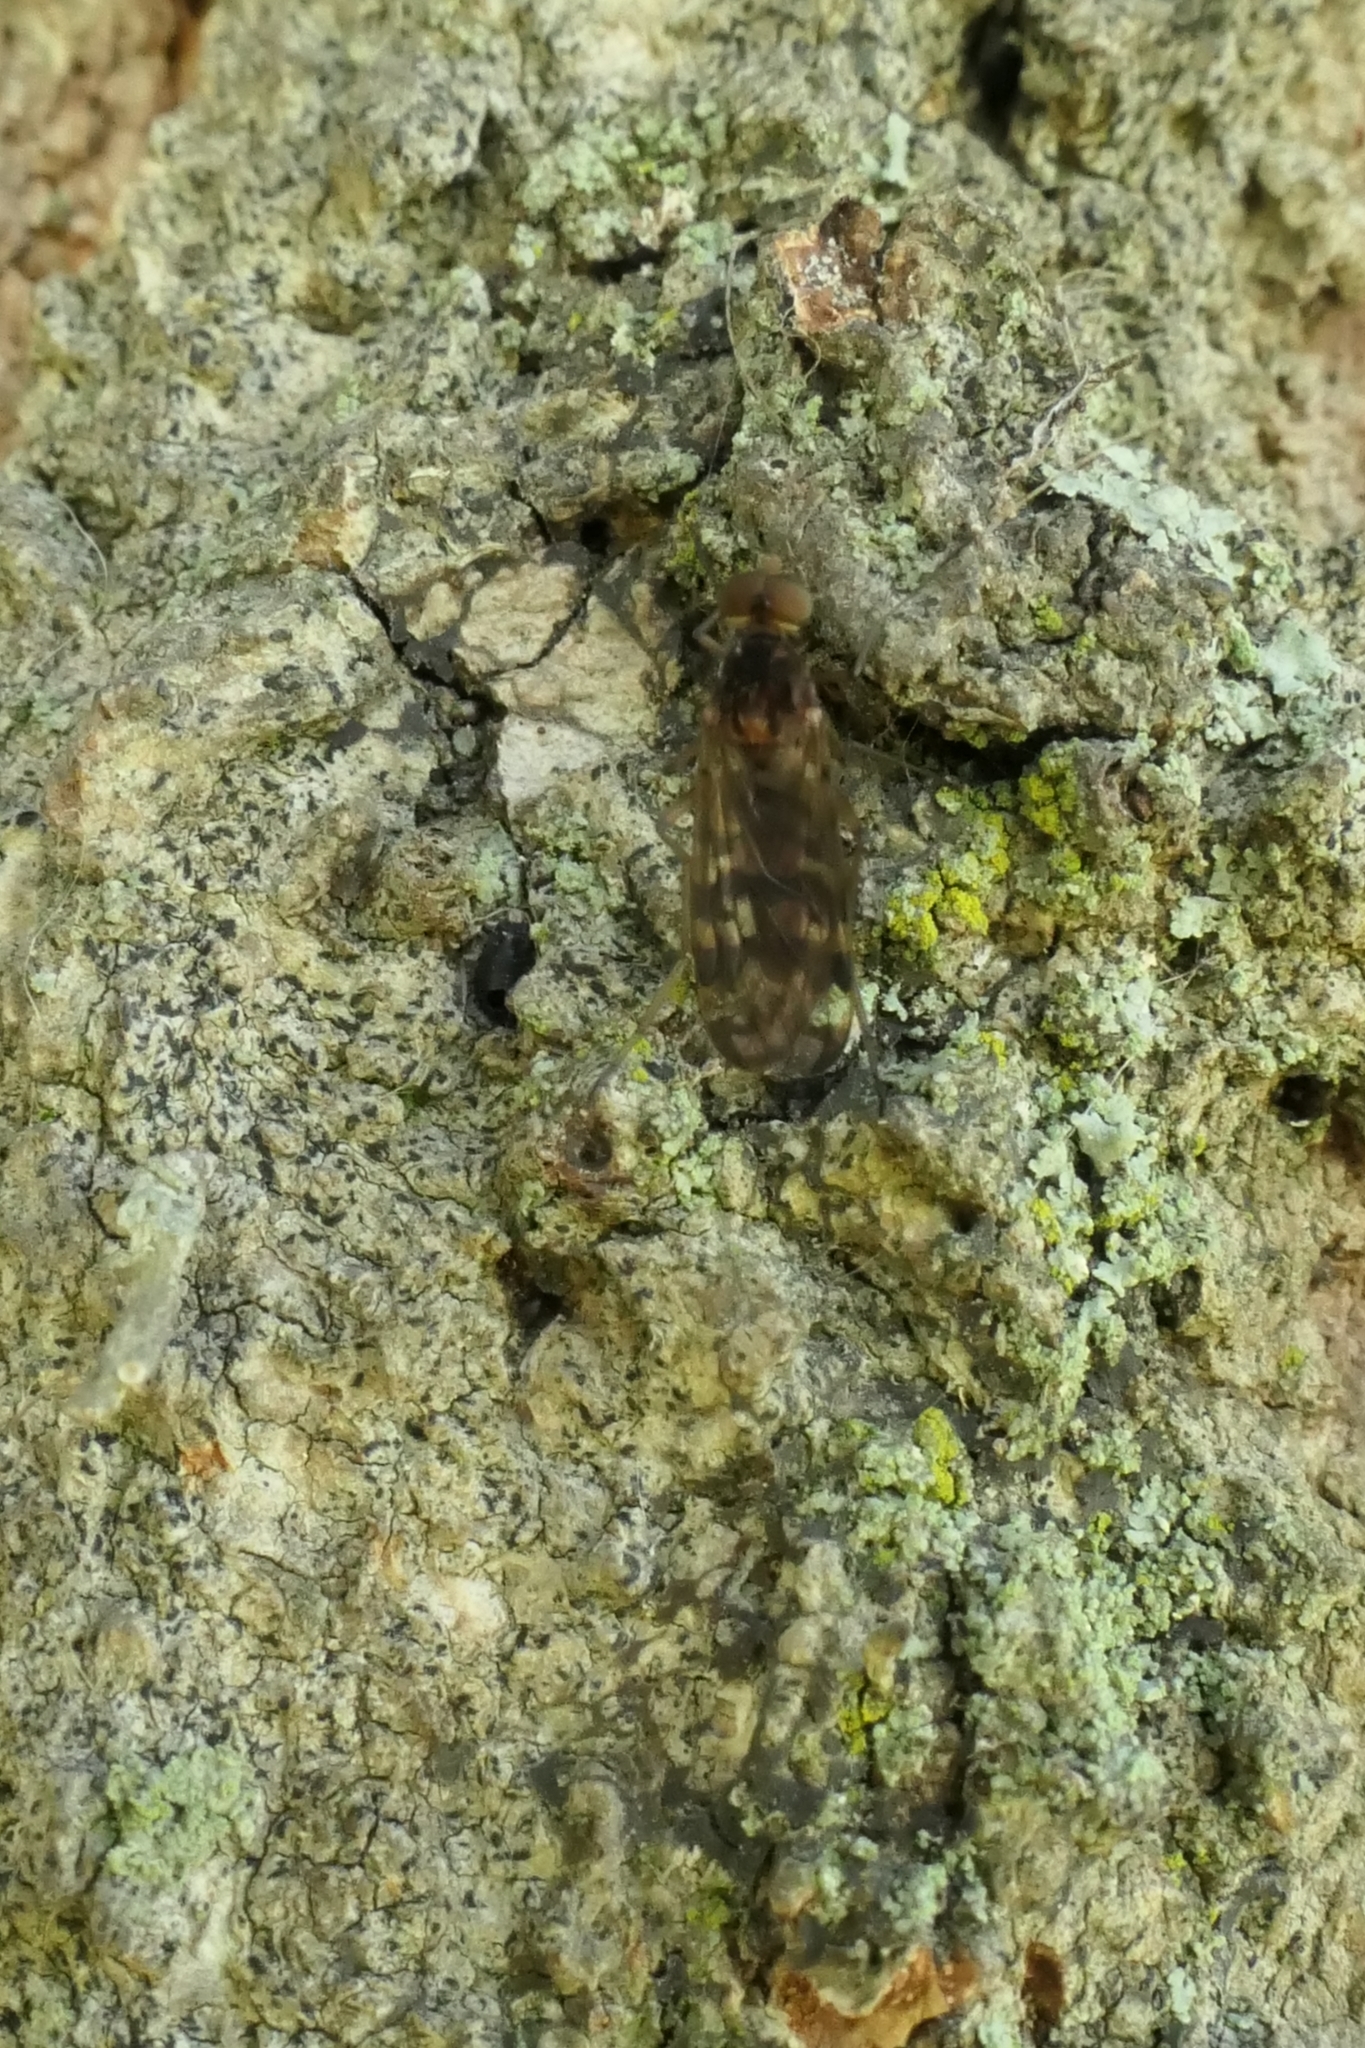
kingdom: Animalia
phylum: Arthropoda
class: Insecta
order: Diptera
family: Anisopodidae
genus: Sylvicola
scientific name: Sylvicola dubius
